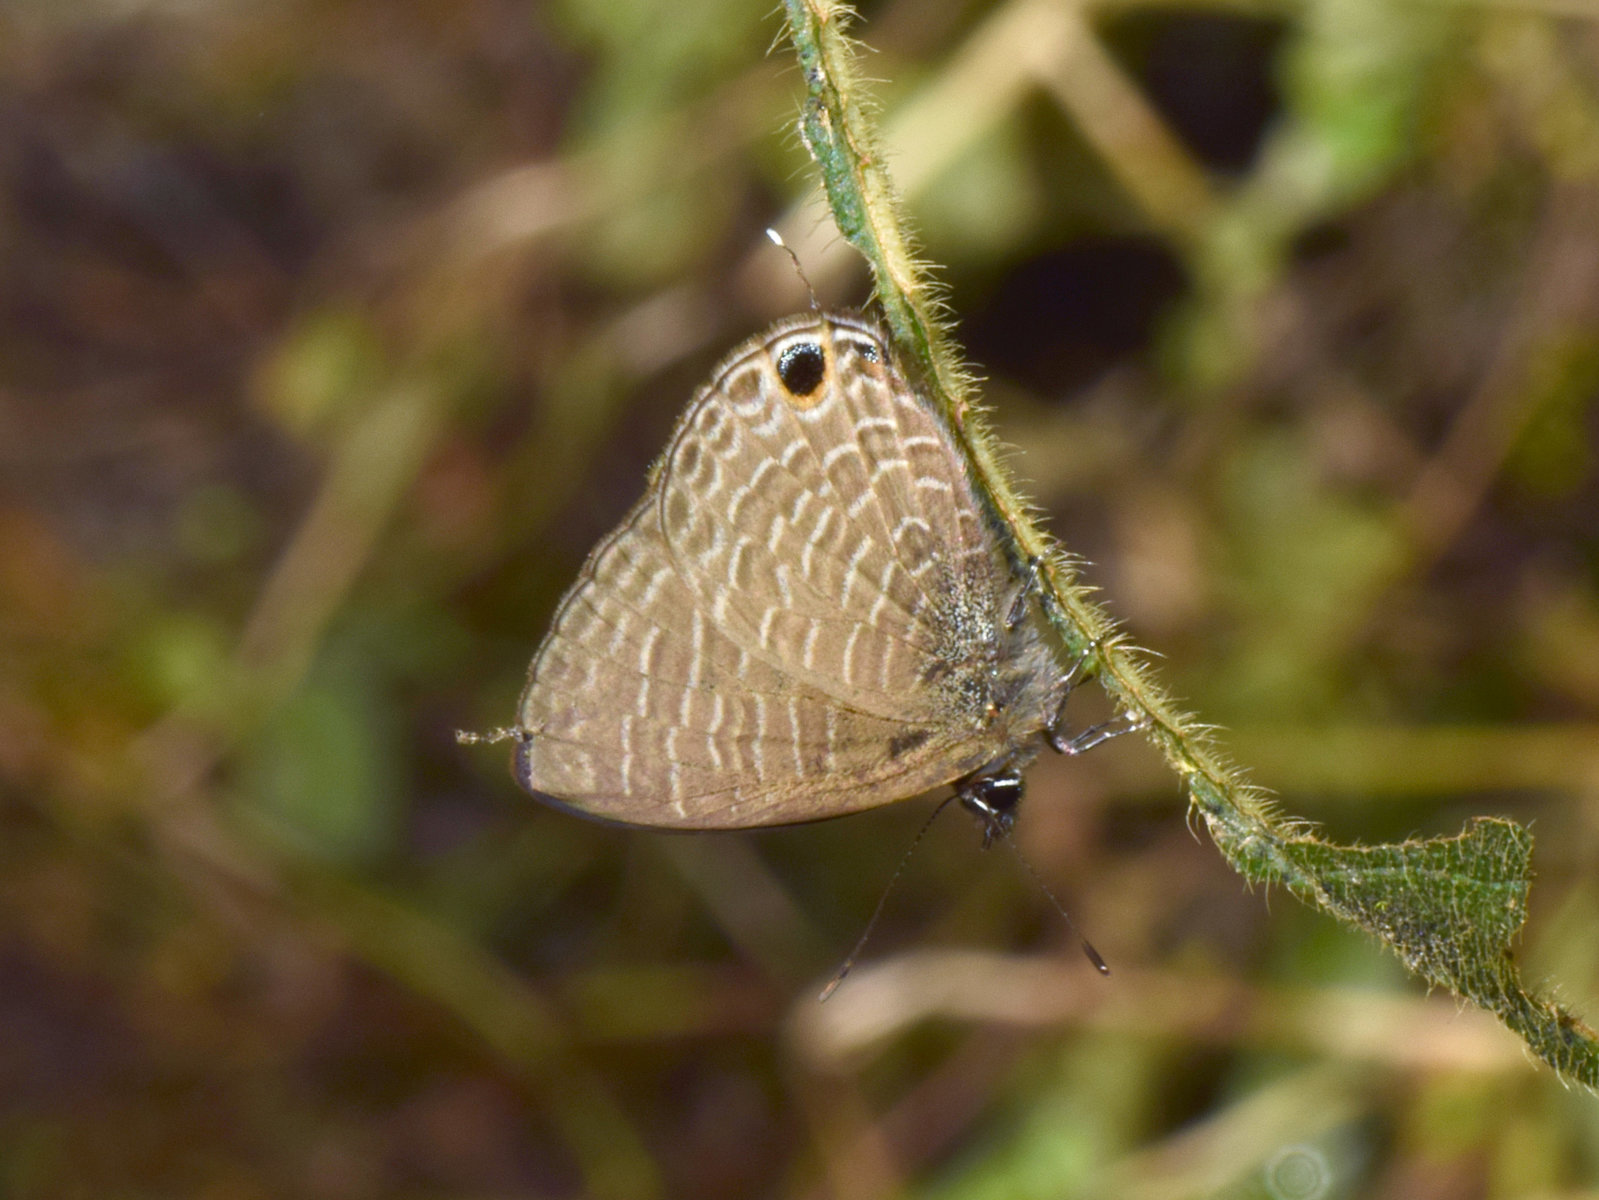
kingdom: Animalia
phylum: Arthropoda
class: Insecta
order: Lepidoptera
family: Lycaenidae
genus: Nacaduba
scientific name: Nacaduba beroe
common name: Opaque sixline blue
